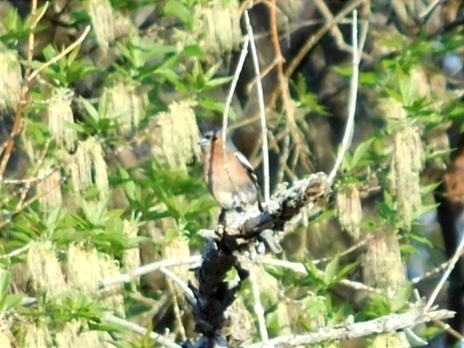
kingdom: Animalia
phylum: Chordata
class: Aves
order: Passeriformes
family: Fringillidae
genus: Fringilla
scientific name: Fringilla coelebs
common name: Common chaffinch
